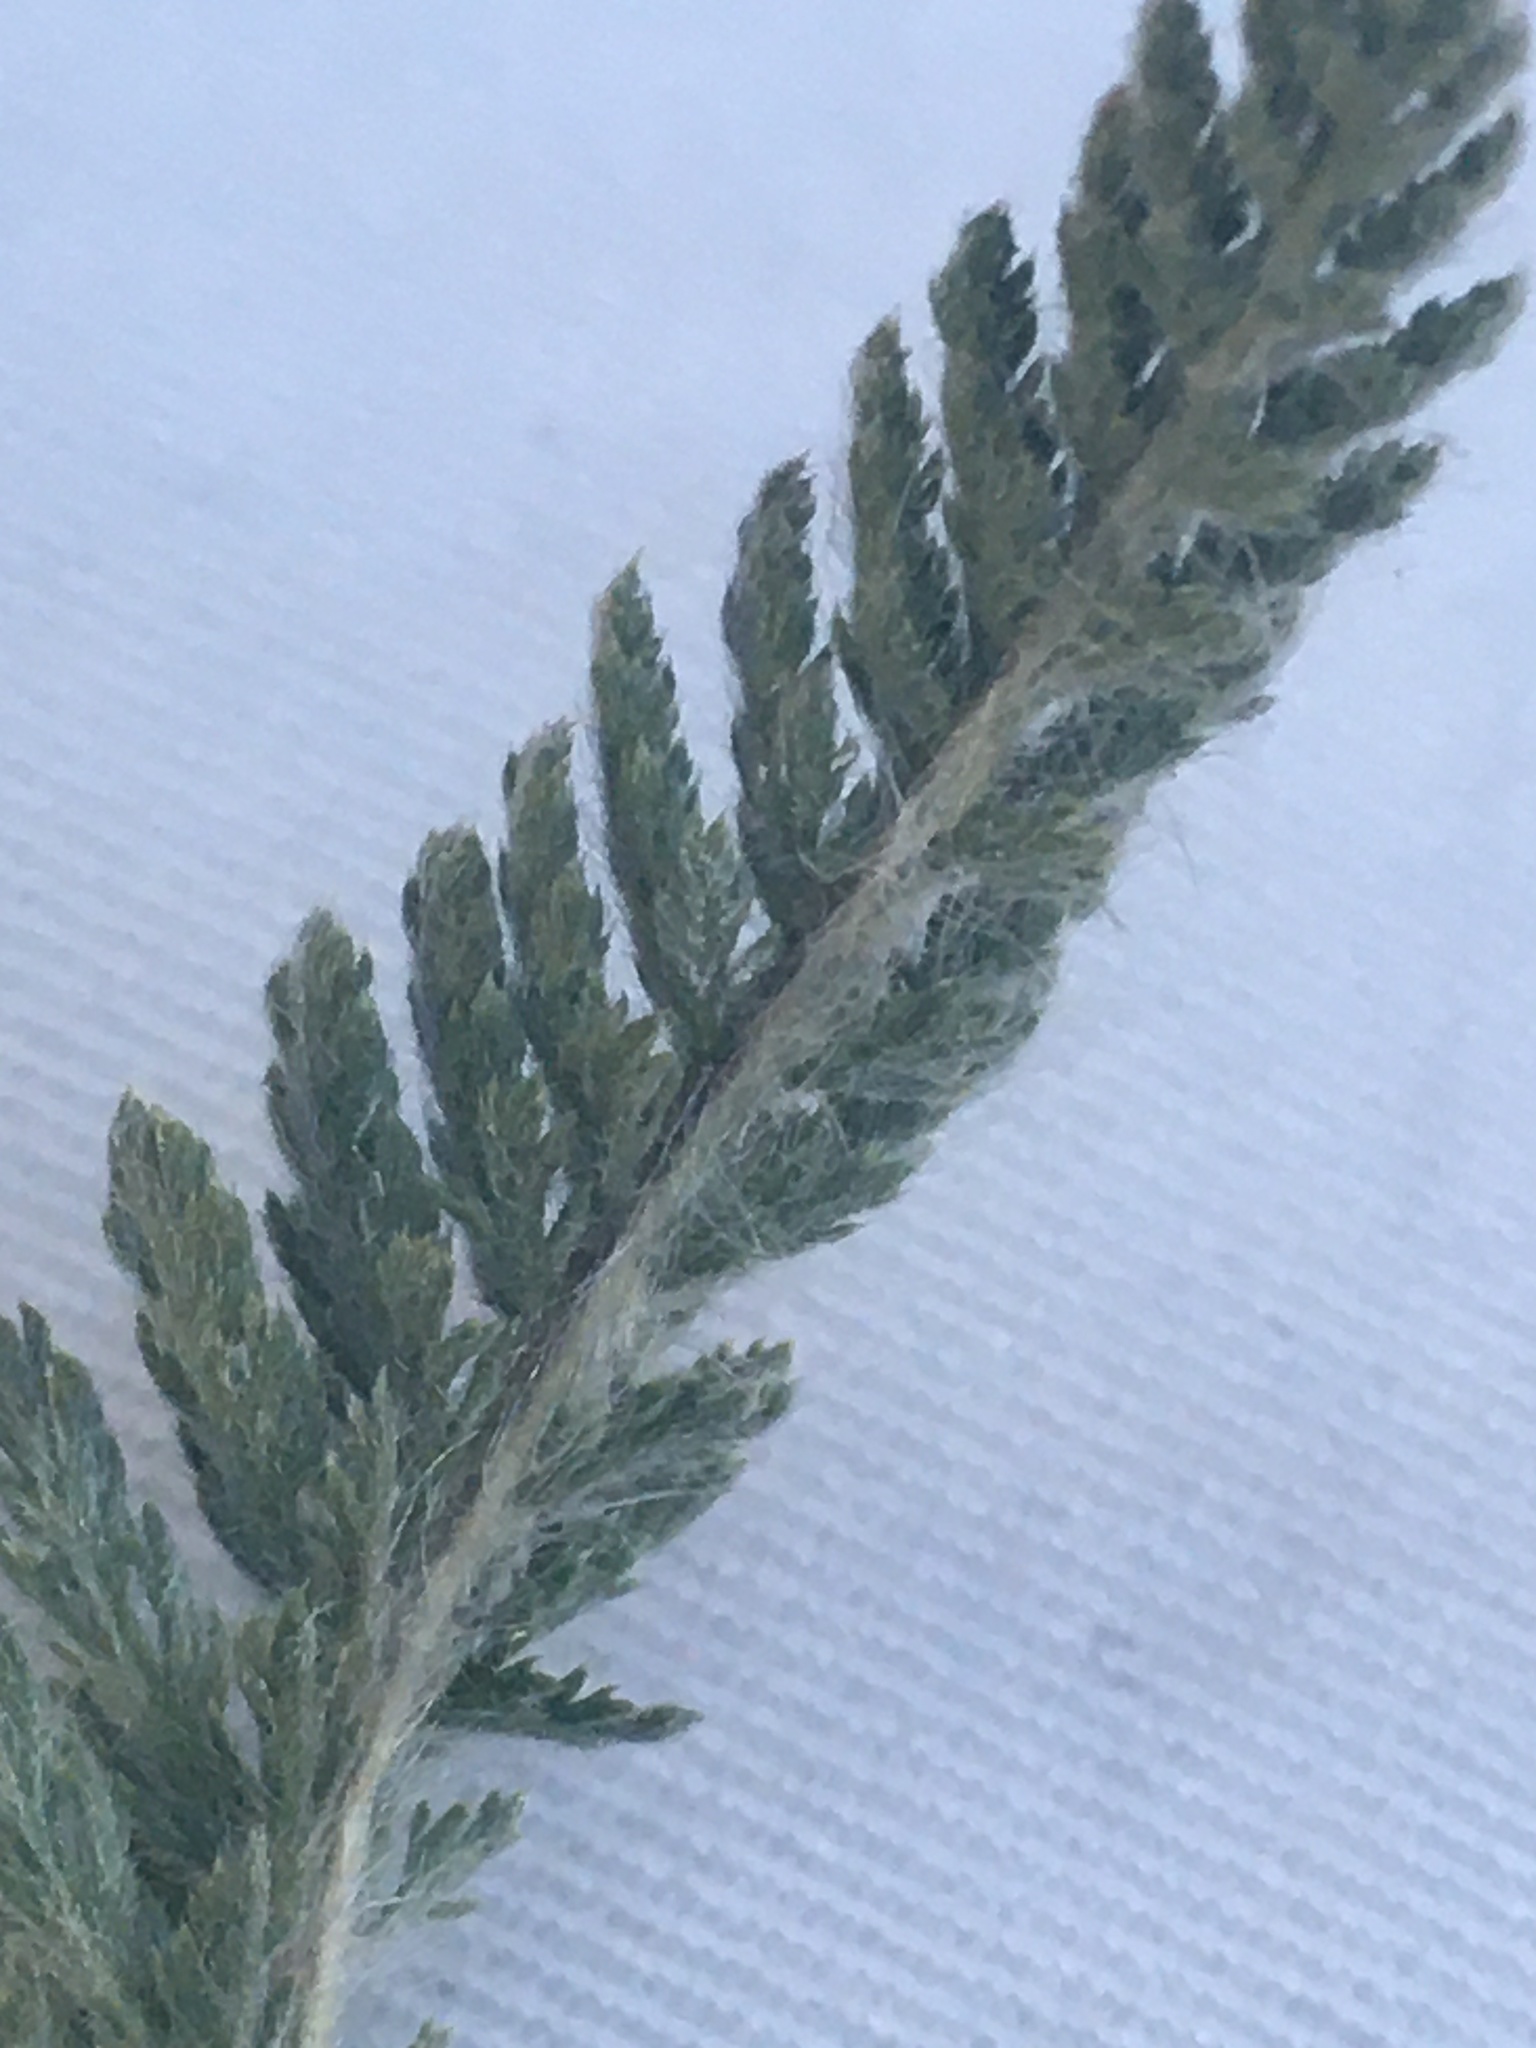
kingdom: Plantae
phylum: Tracheophyta
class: Magnoliopsida
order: Asterales
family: Asteraceae
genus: Achillea
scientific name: Achillea setacea
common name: Bristly yarrow
